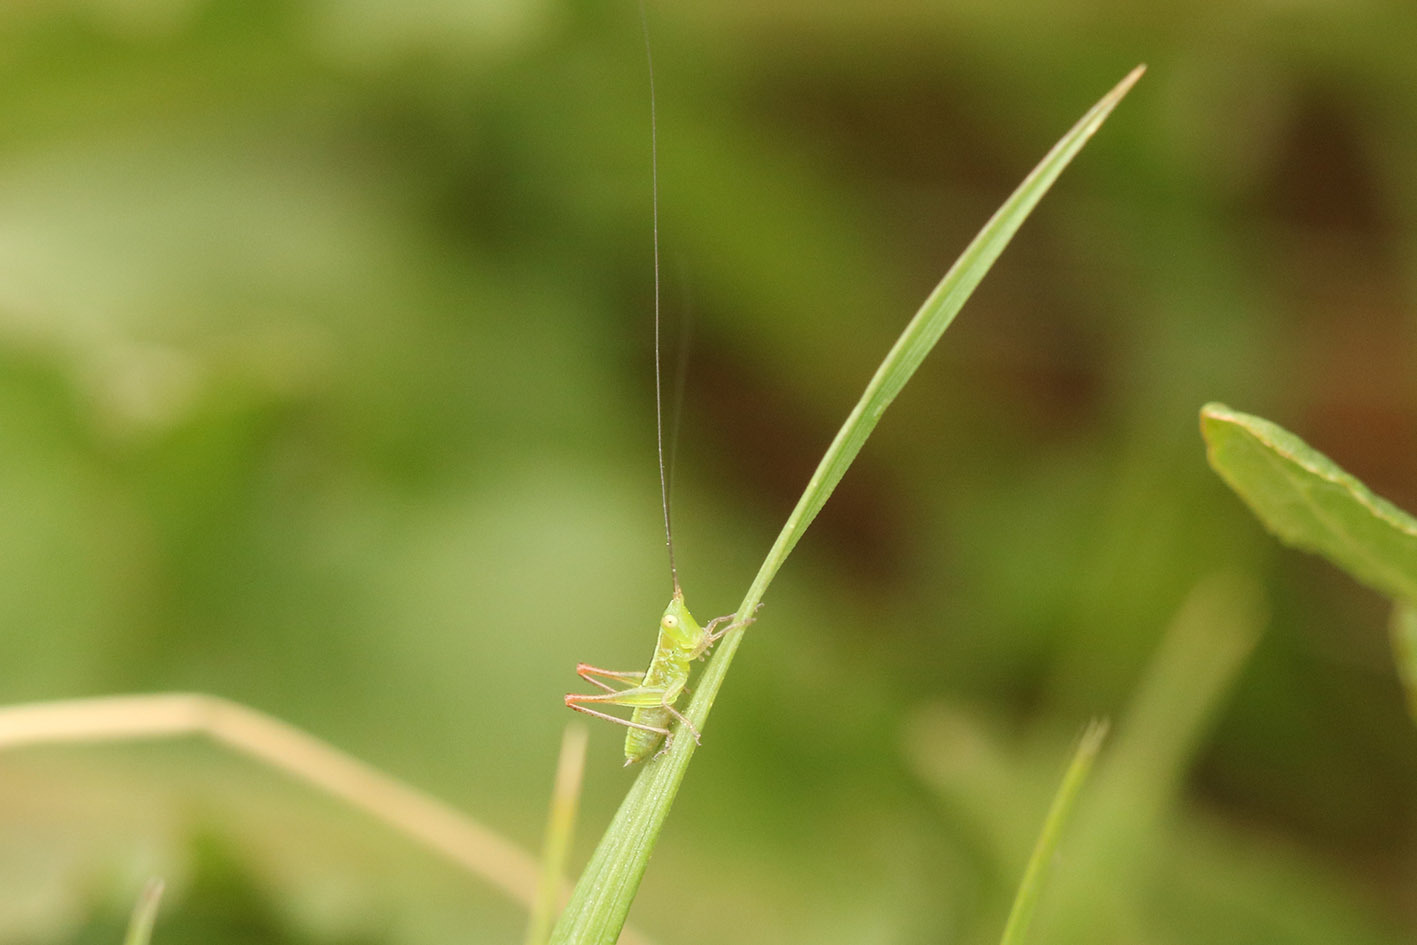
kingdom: Animalia
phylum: Arthropoda
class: Insecta
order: Orthoptera
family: Tettigoniidae
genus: Conocephalus
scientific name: Conocephalus longipes
